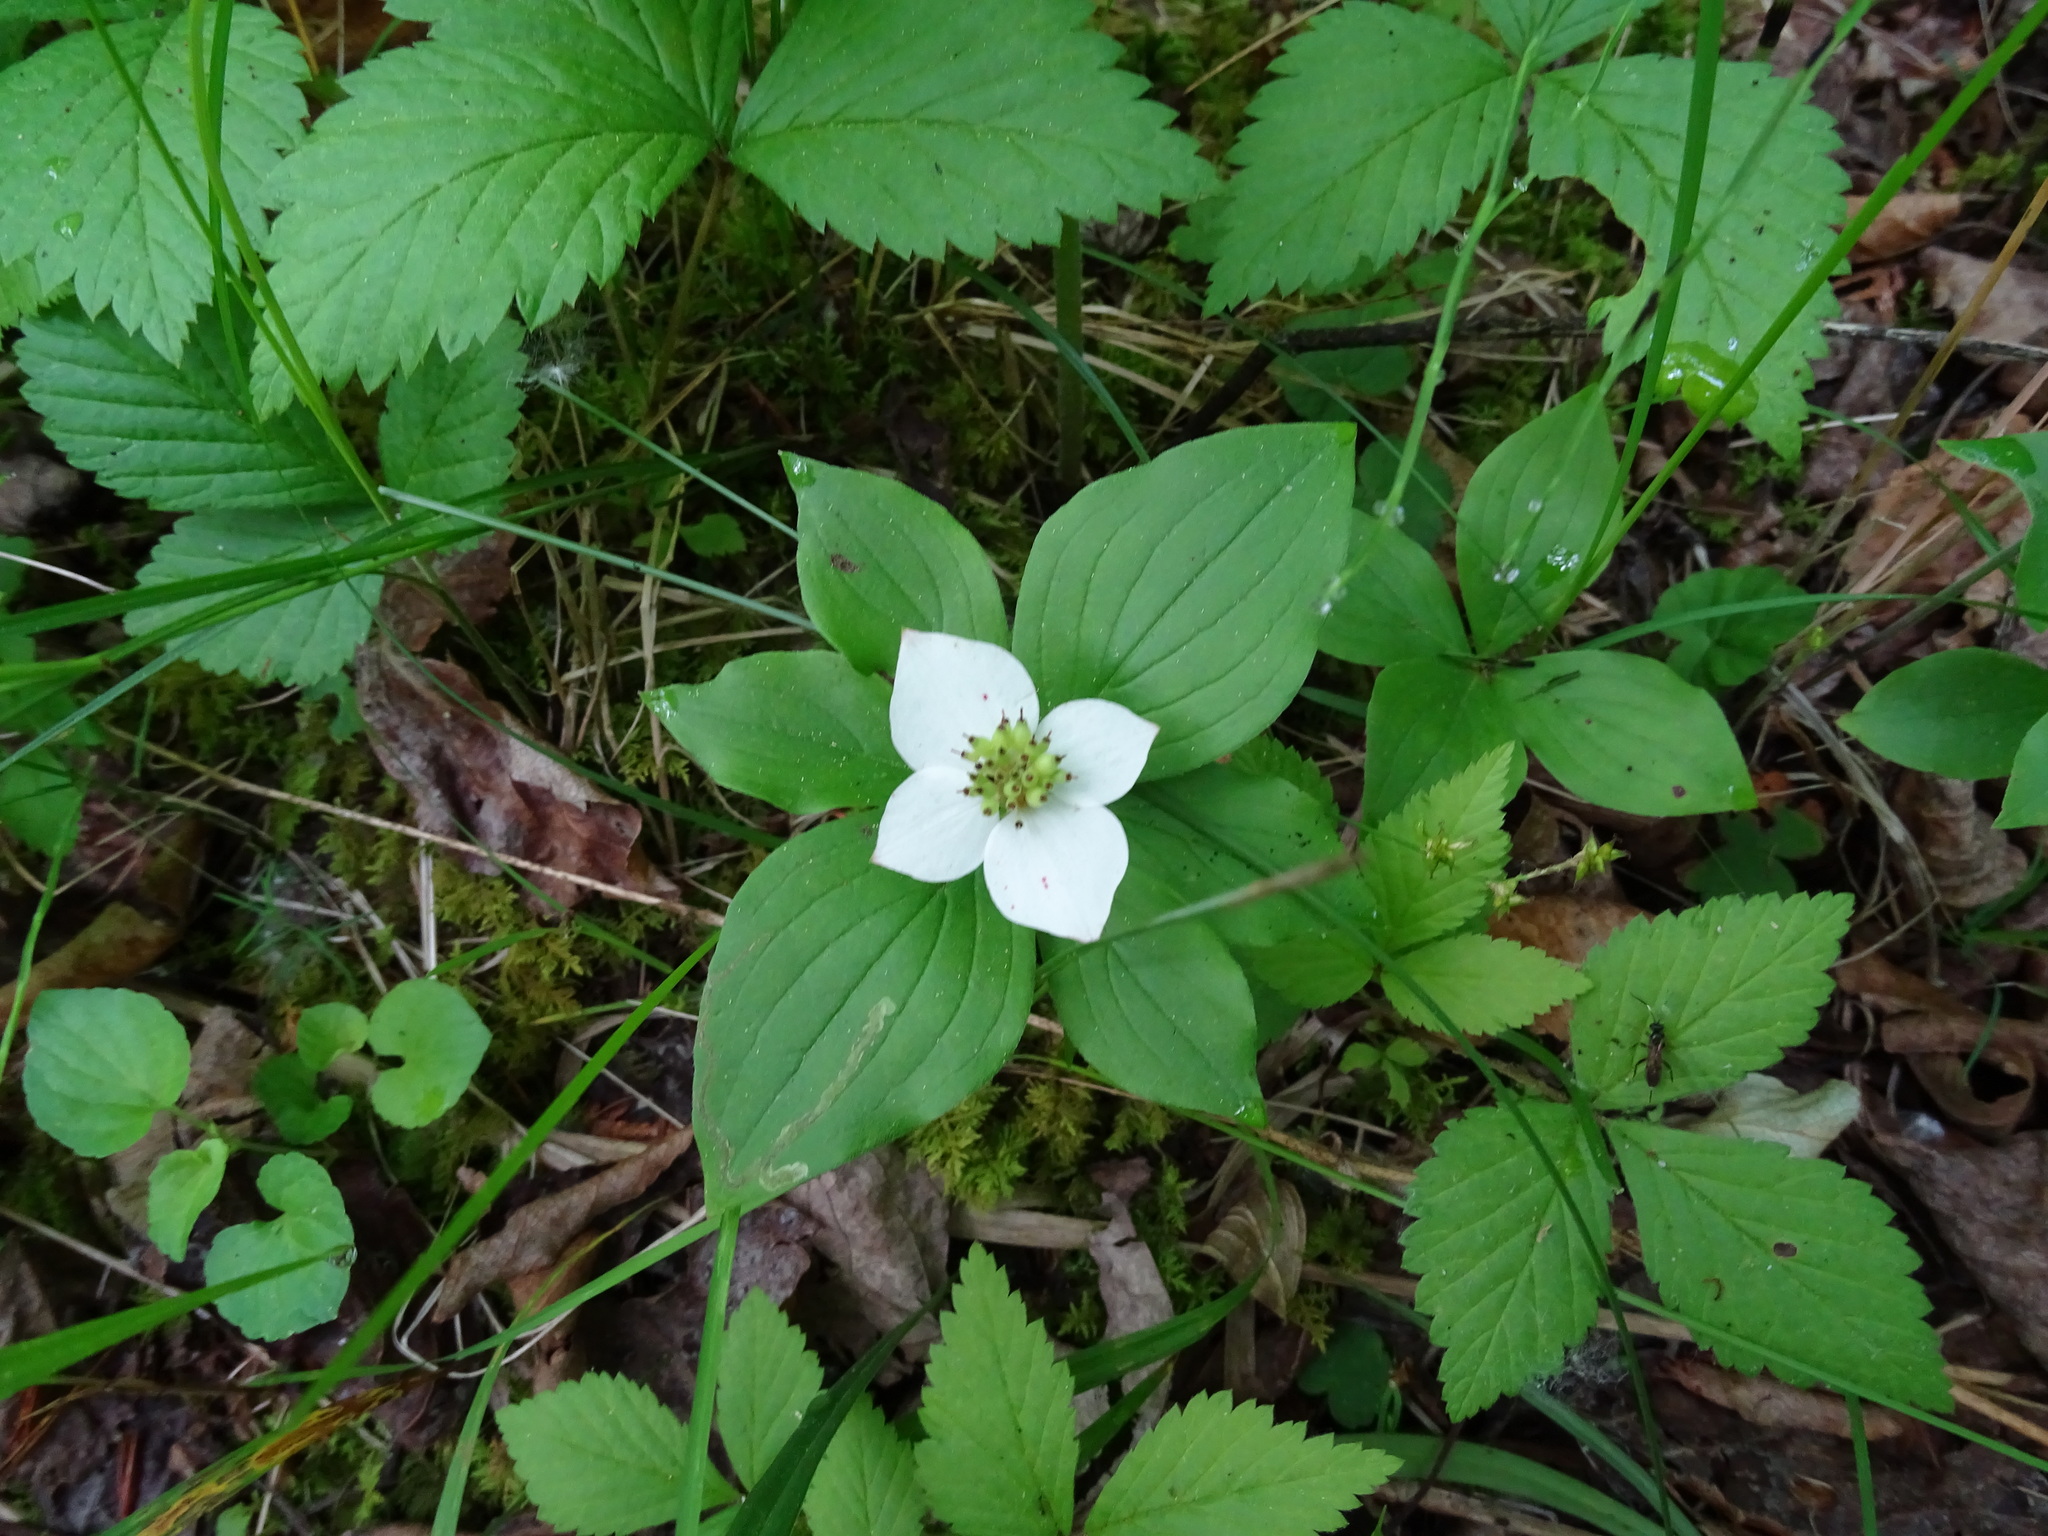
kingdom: Plantae
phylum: Tracheophyta
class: Magnoliopsida
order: Cornales
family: Cornaceae
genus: Cornus
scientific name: Cornus canadensis
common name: Creeping dogwood
